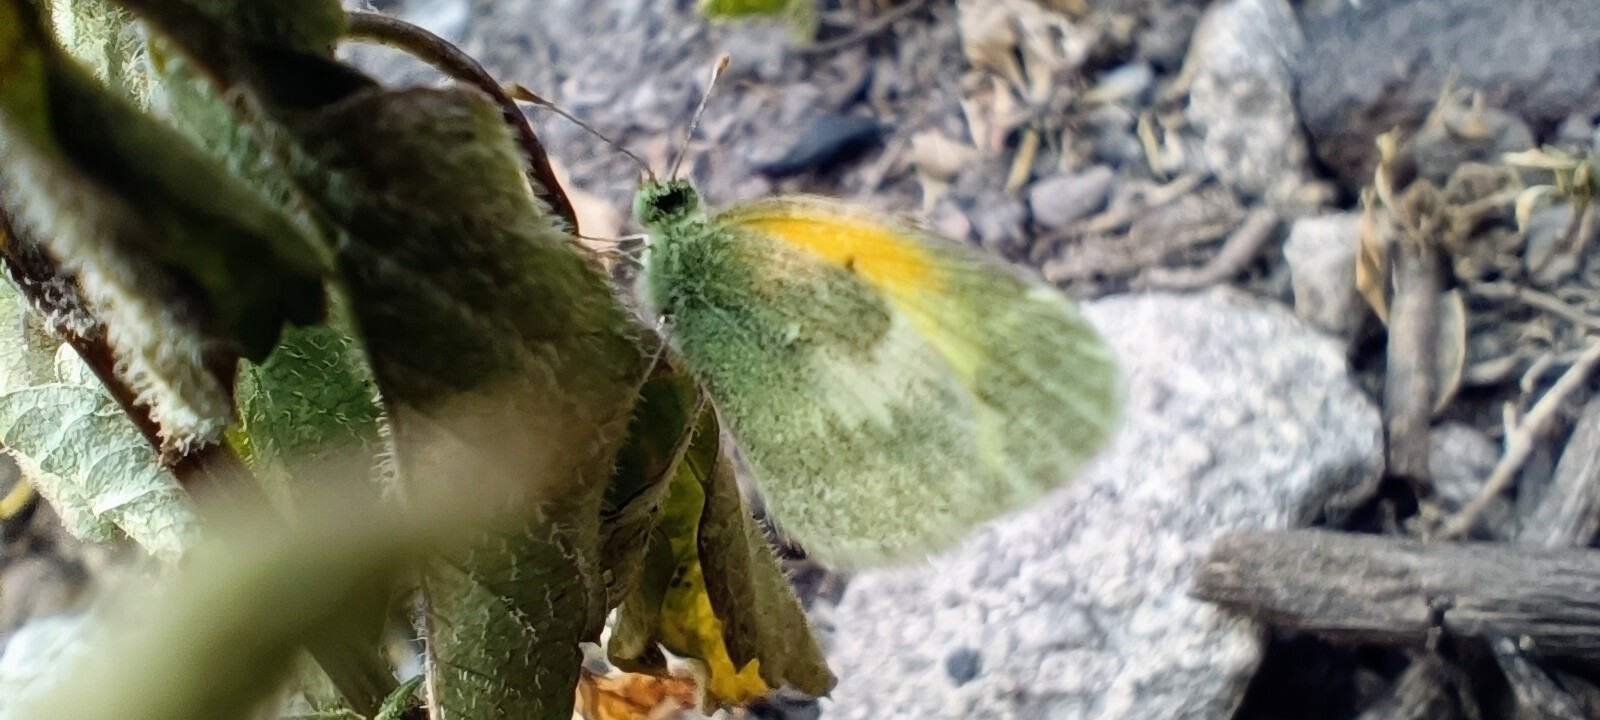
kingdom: Animalia
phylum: Arthropoda
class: Insecta
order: Lepidoptera
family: Pieridae
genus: Nathalis
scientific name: Nathalis iole
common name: Dainty sulphur
